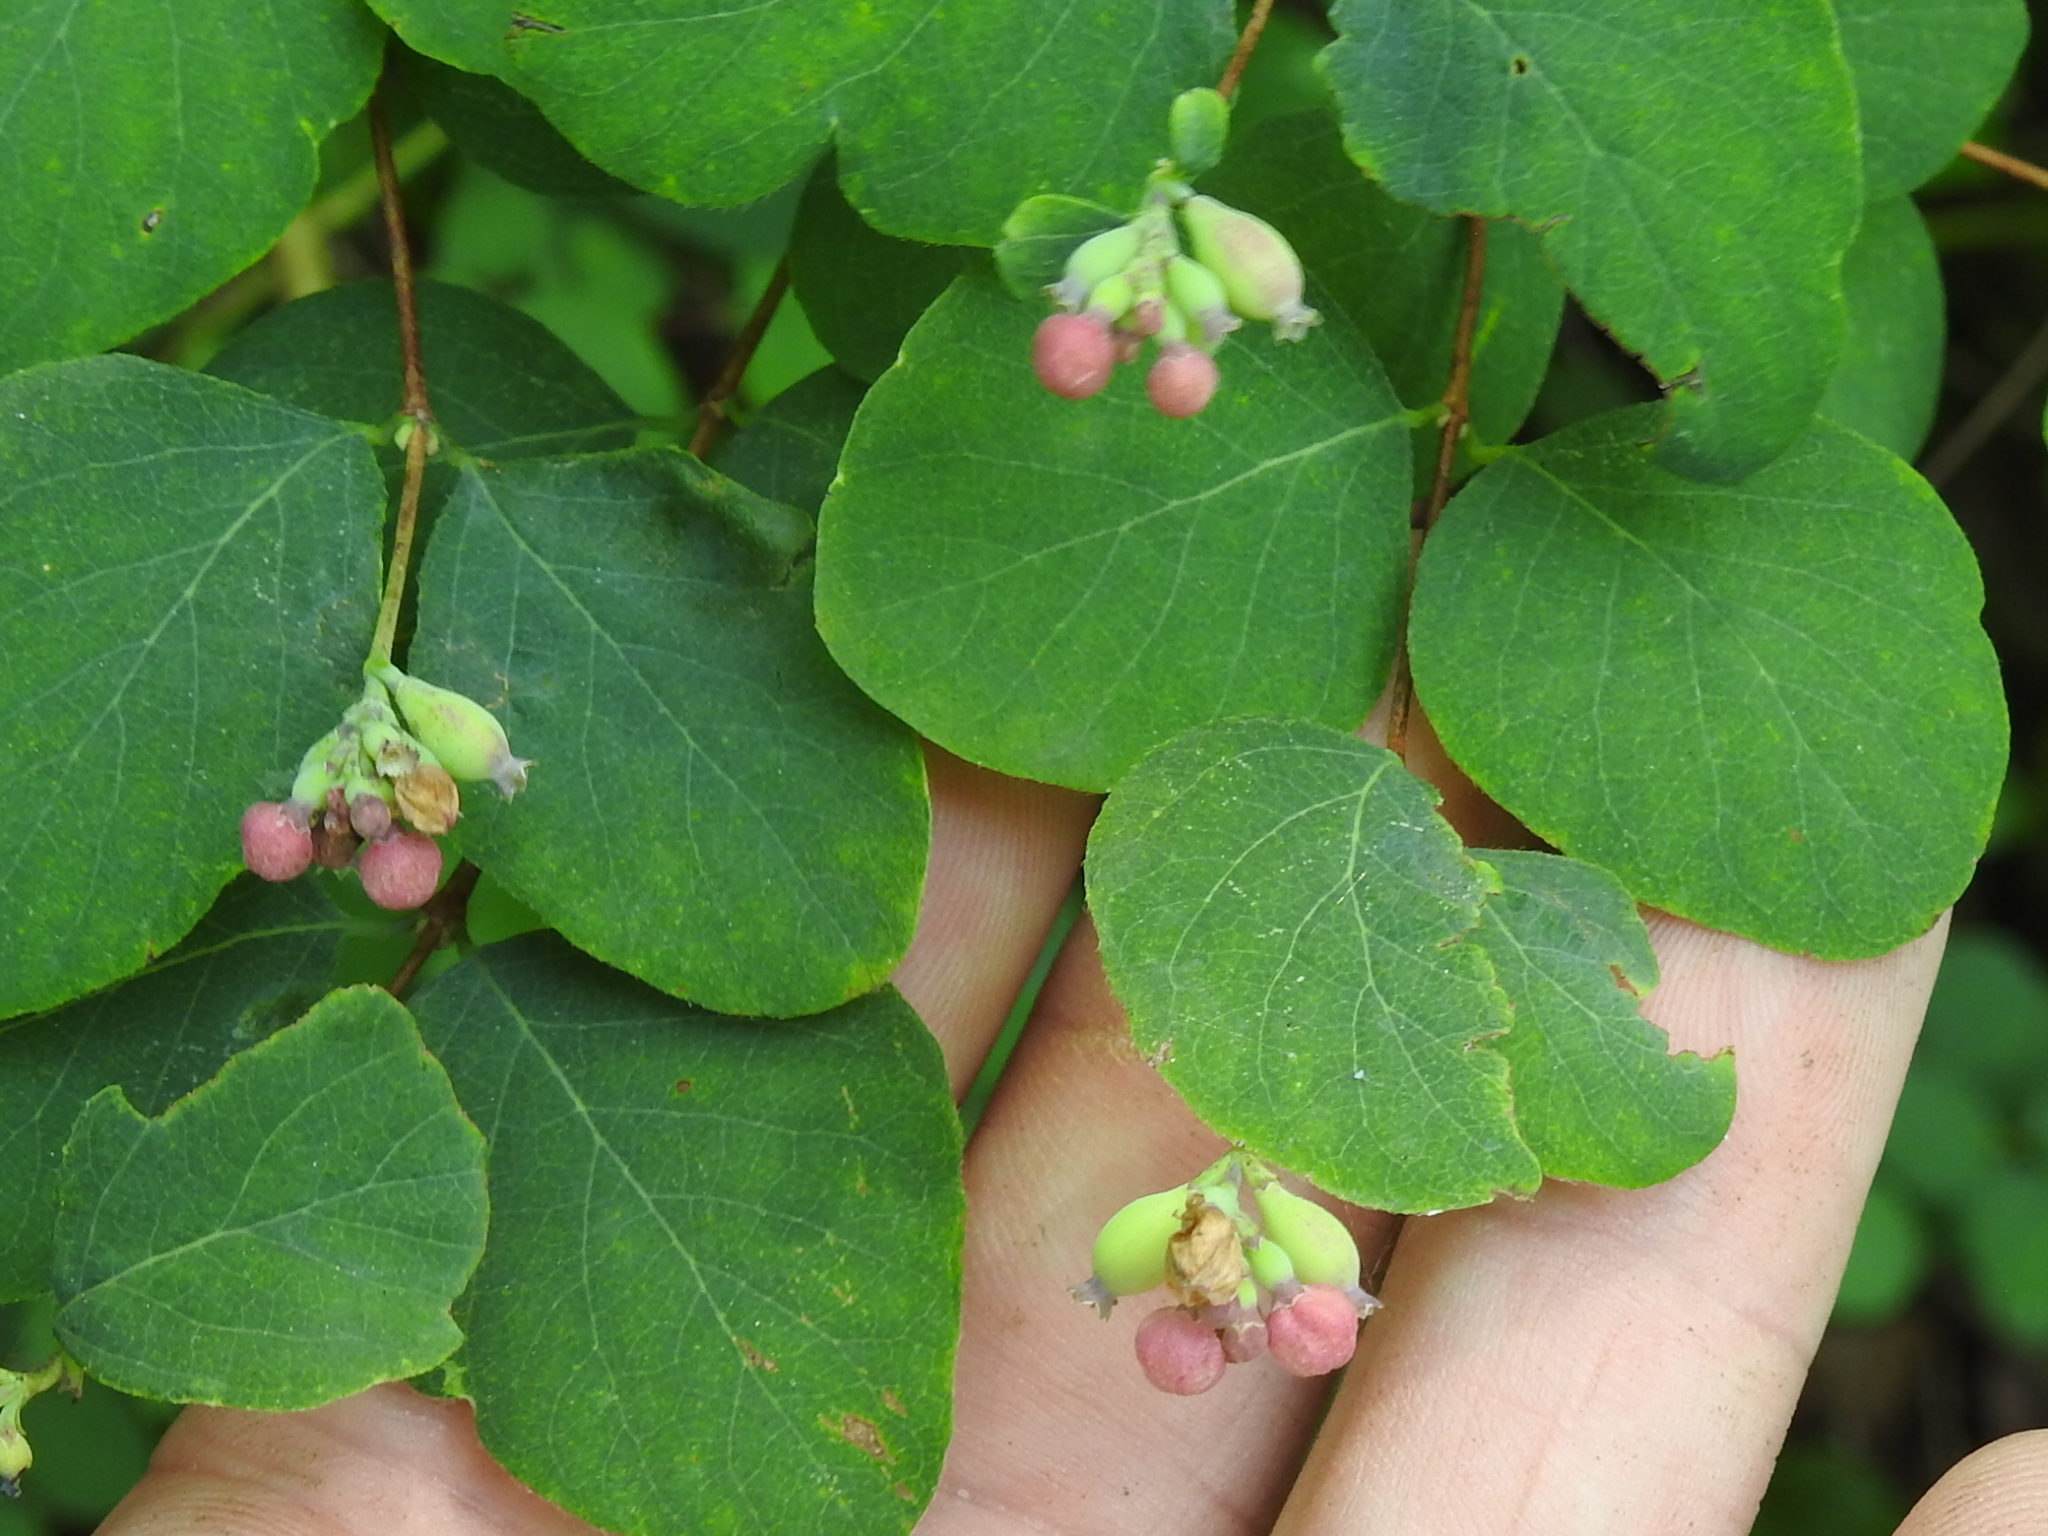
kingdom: Plantae
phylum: Tracheophyta
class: Magnoliopsida
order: Dipsacales
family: Caprifoliaceae
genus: Symphoricarpos
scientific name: Symphoricarpos albus
